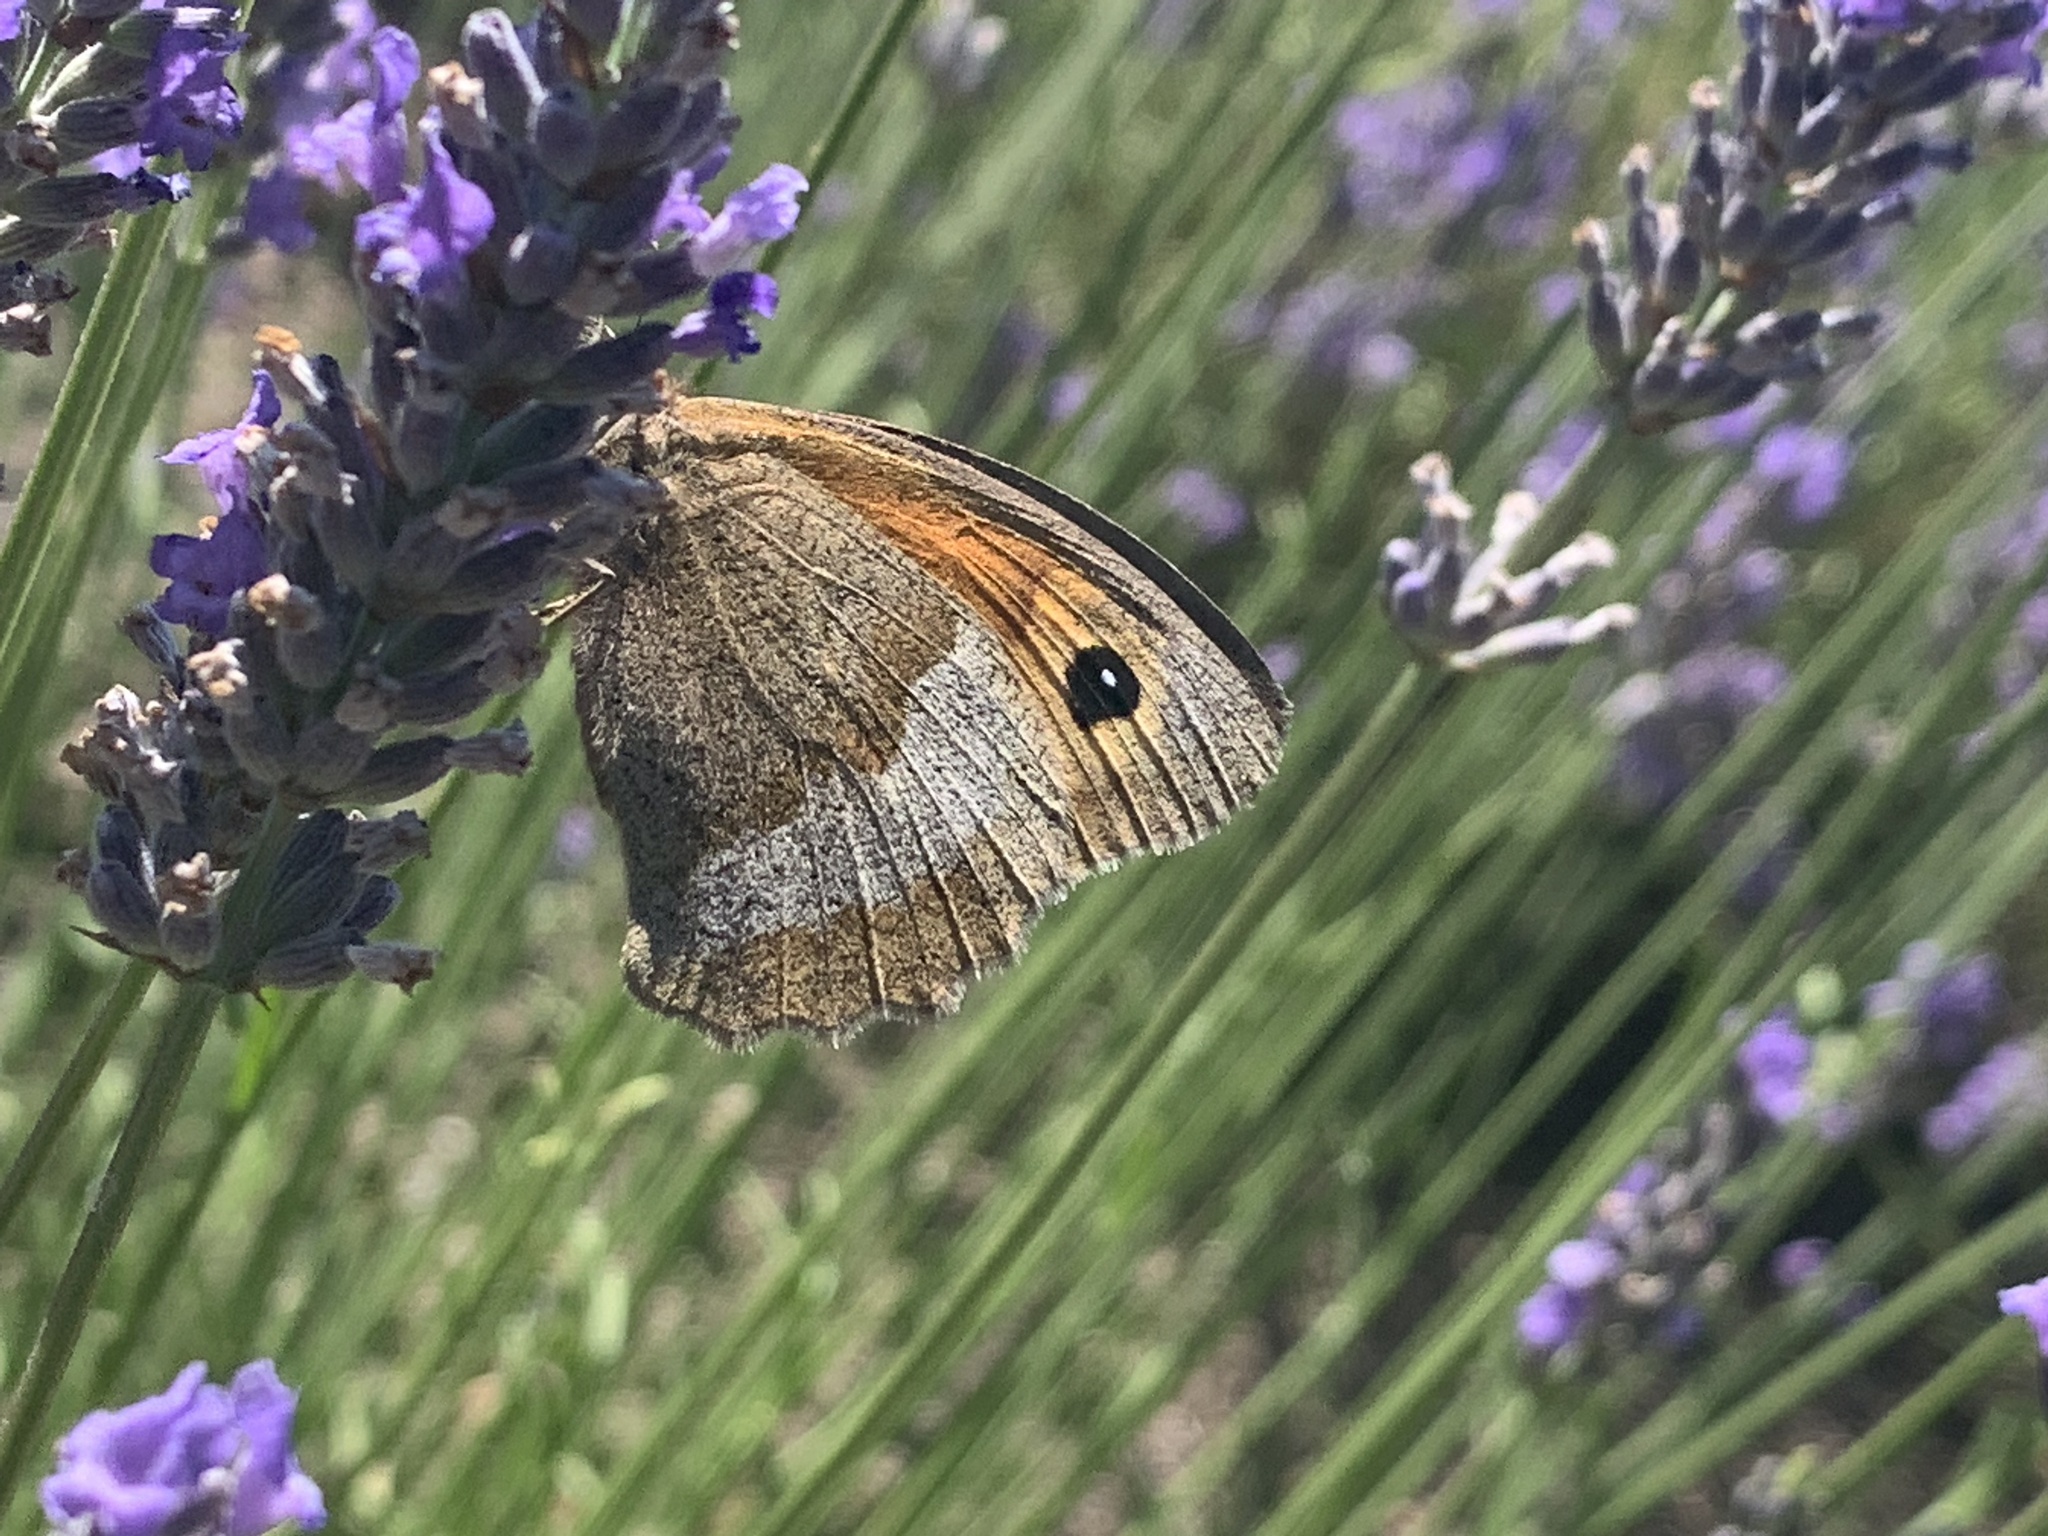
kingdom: Animalia
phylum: Arthropoda
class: Insecta
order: Lepidoptera
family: Nymphalidae
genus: Maniola
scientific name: Maniola jurtina
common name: Meadow brown
